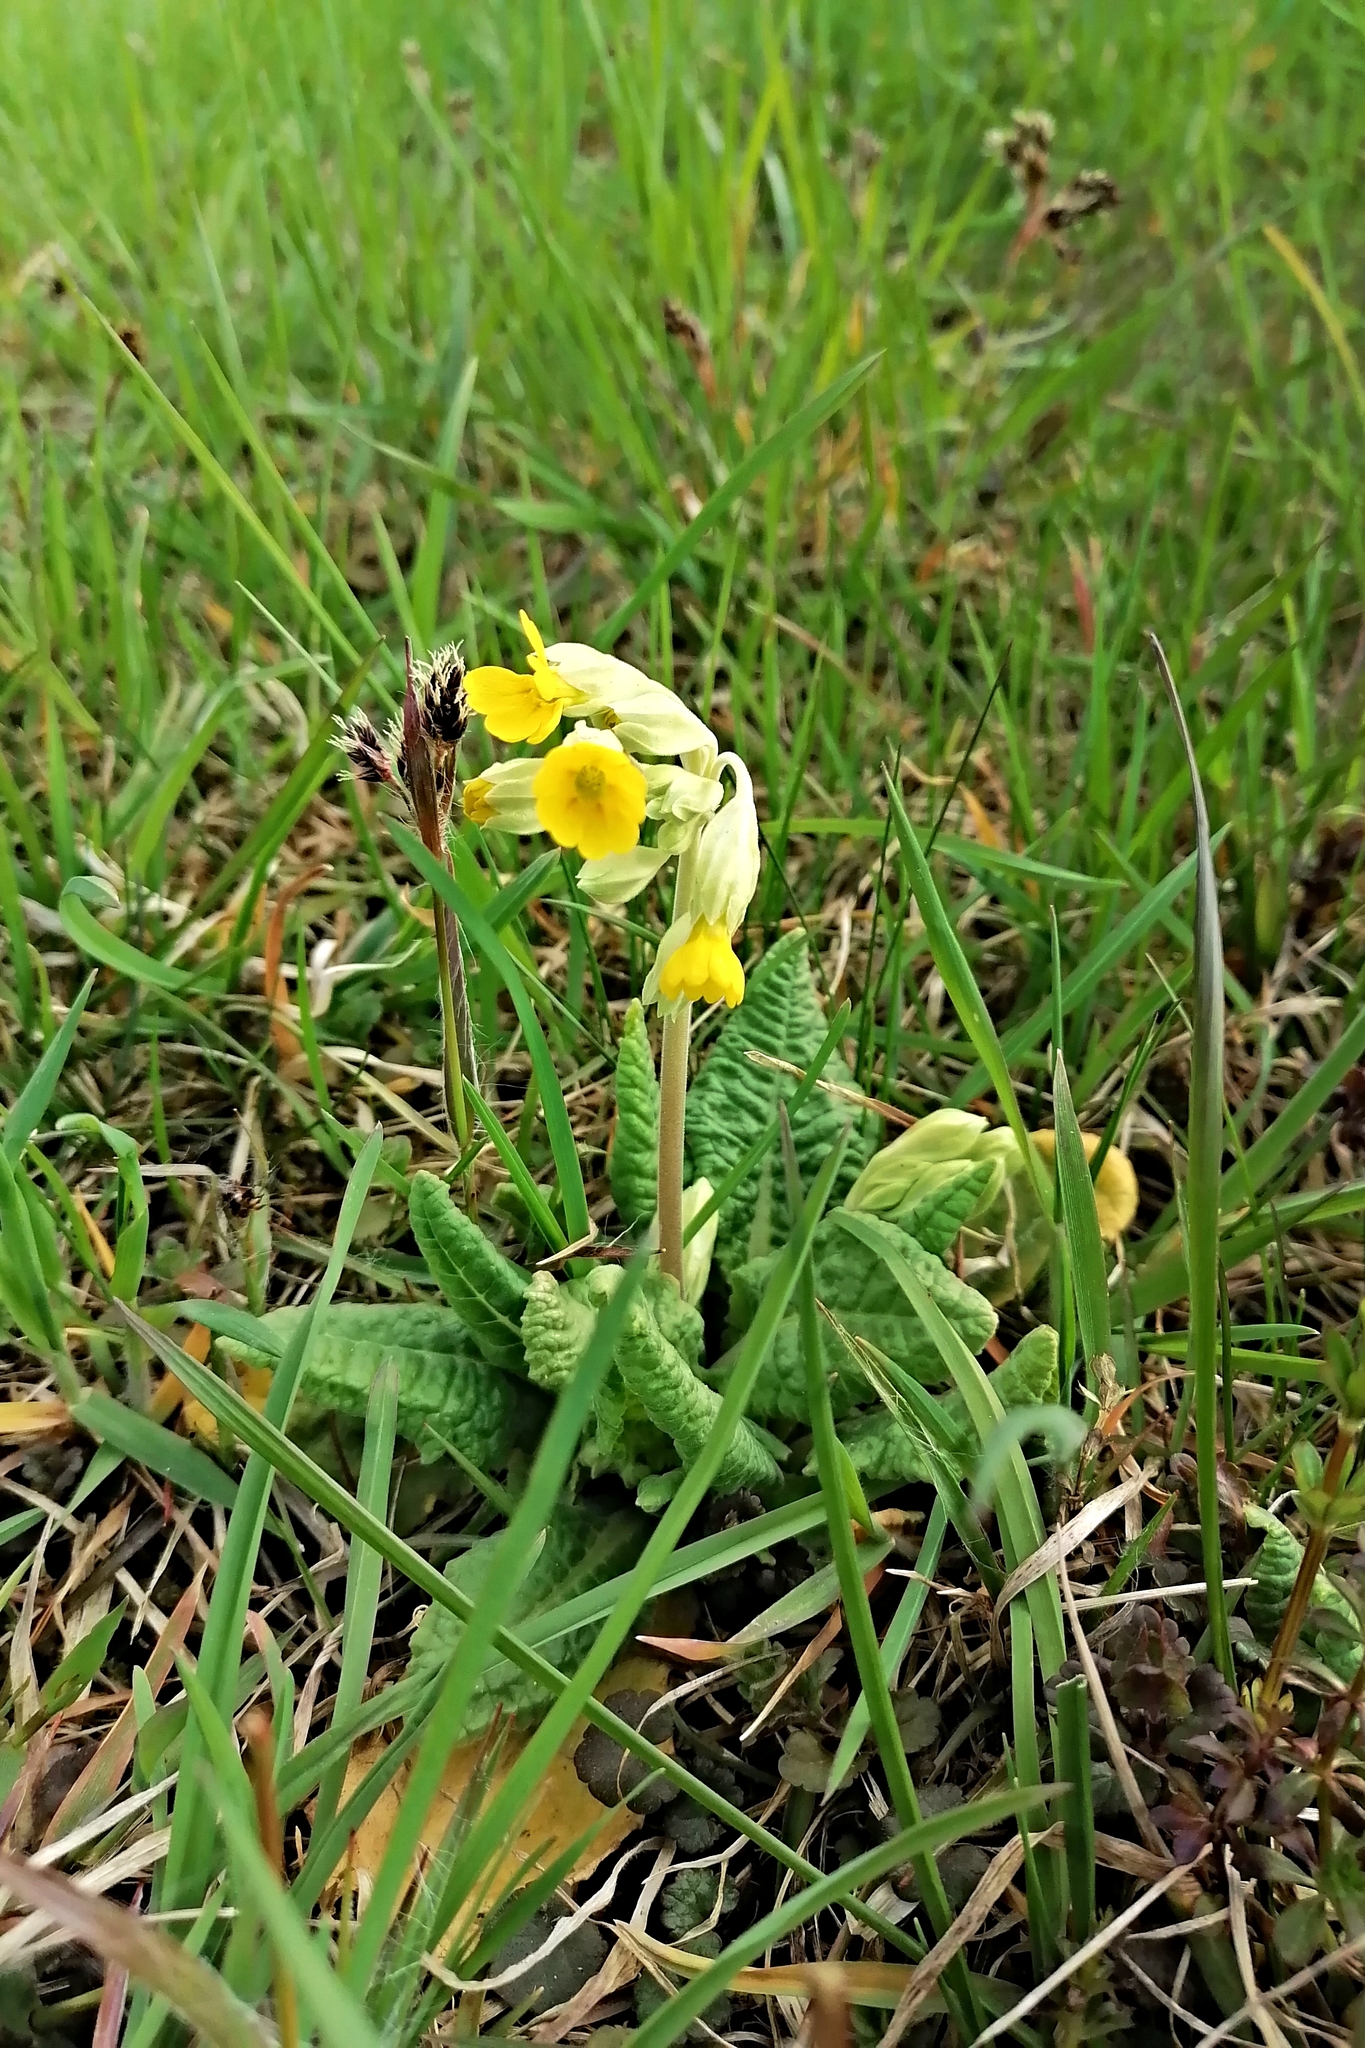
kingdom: Plantae
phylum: Tracheophyta
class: Magnoliopsida
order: Ericales
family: Primulaceae
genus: Primula
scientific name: Primula veris
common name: Cowslip
